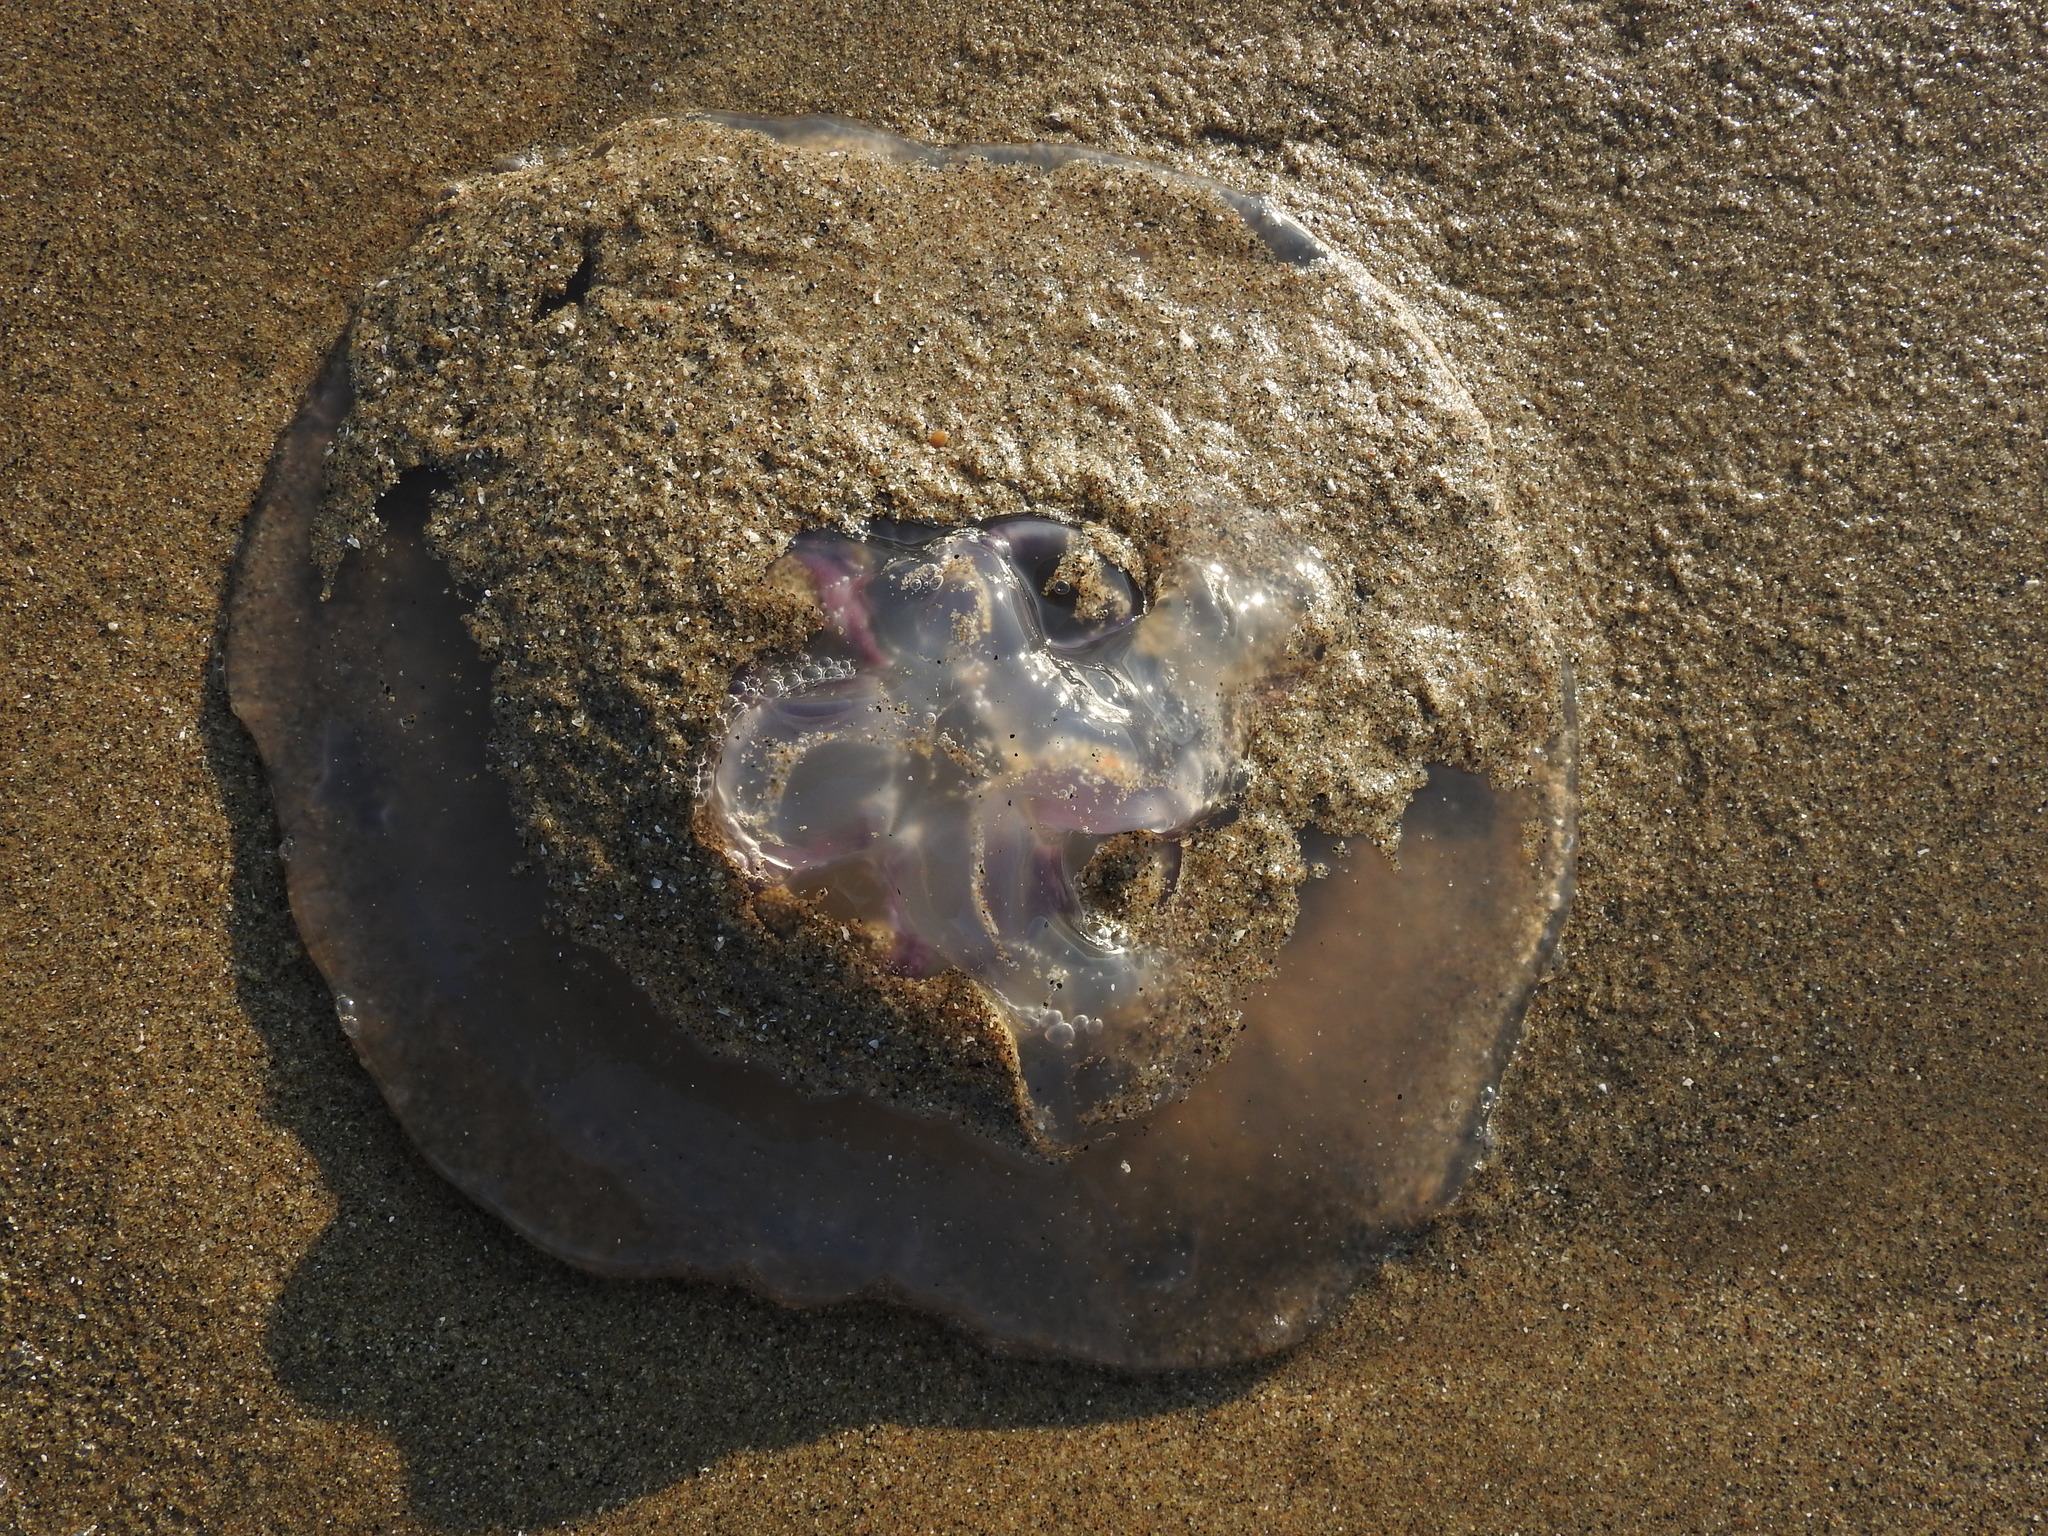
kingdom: Animalia
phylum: Cnidaria
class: Scyphozoa
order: Semaeostomeae
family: Ulmaridae
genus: Aurelia
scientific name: Aurelia labiata
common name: Pacific moon jelly
